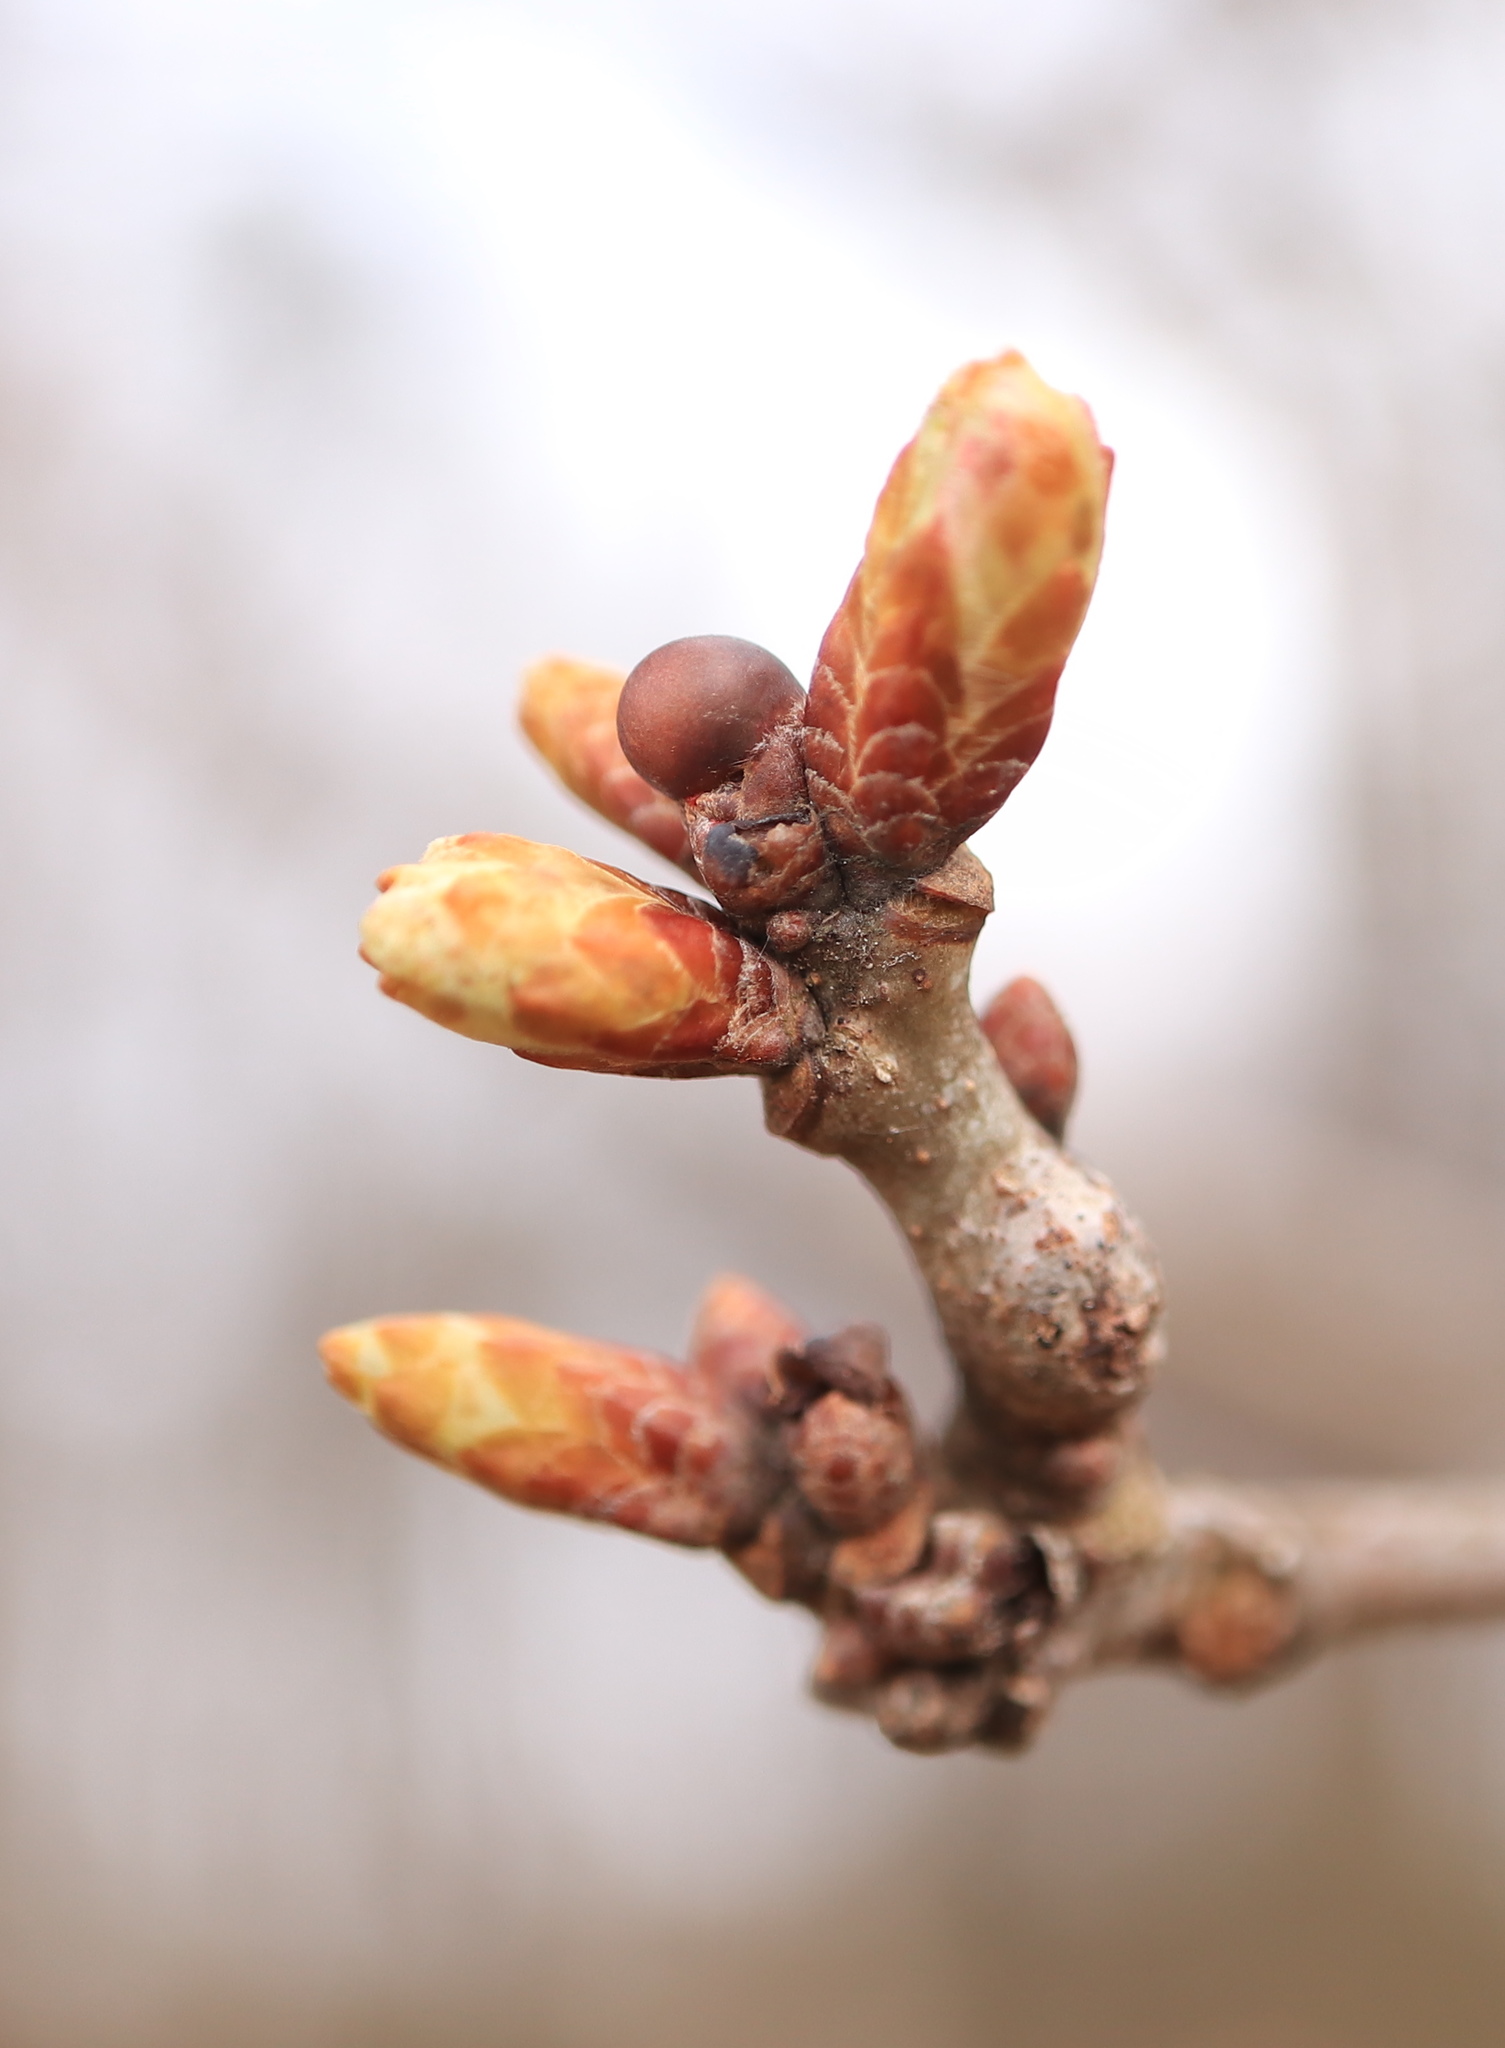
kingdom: Animalia
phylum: Arthropoda
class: Insecta
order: Hymenoptera
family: Cynipidae
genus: Neuroterus
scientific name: Neuroterus quercusbaccarum
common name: Common spangle gall
